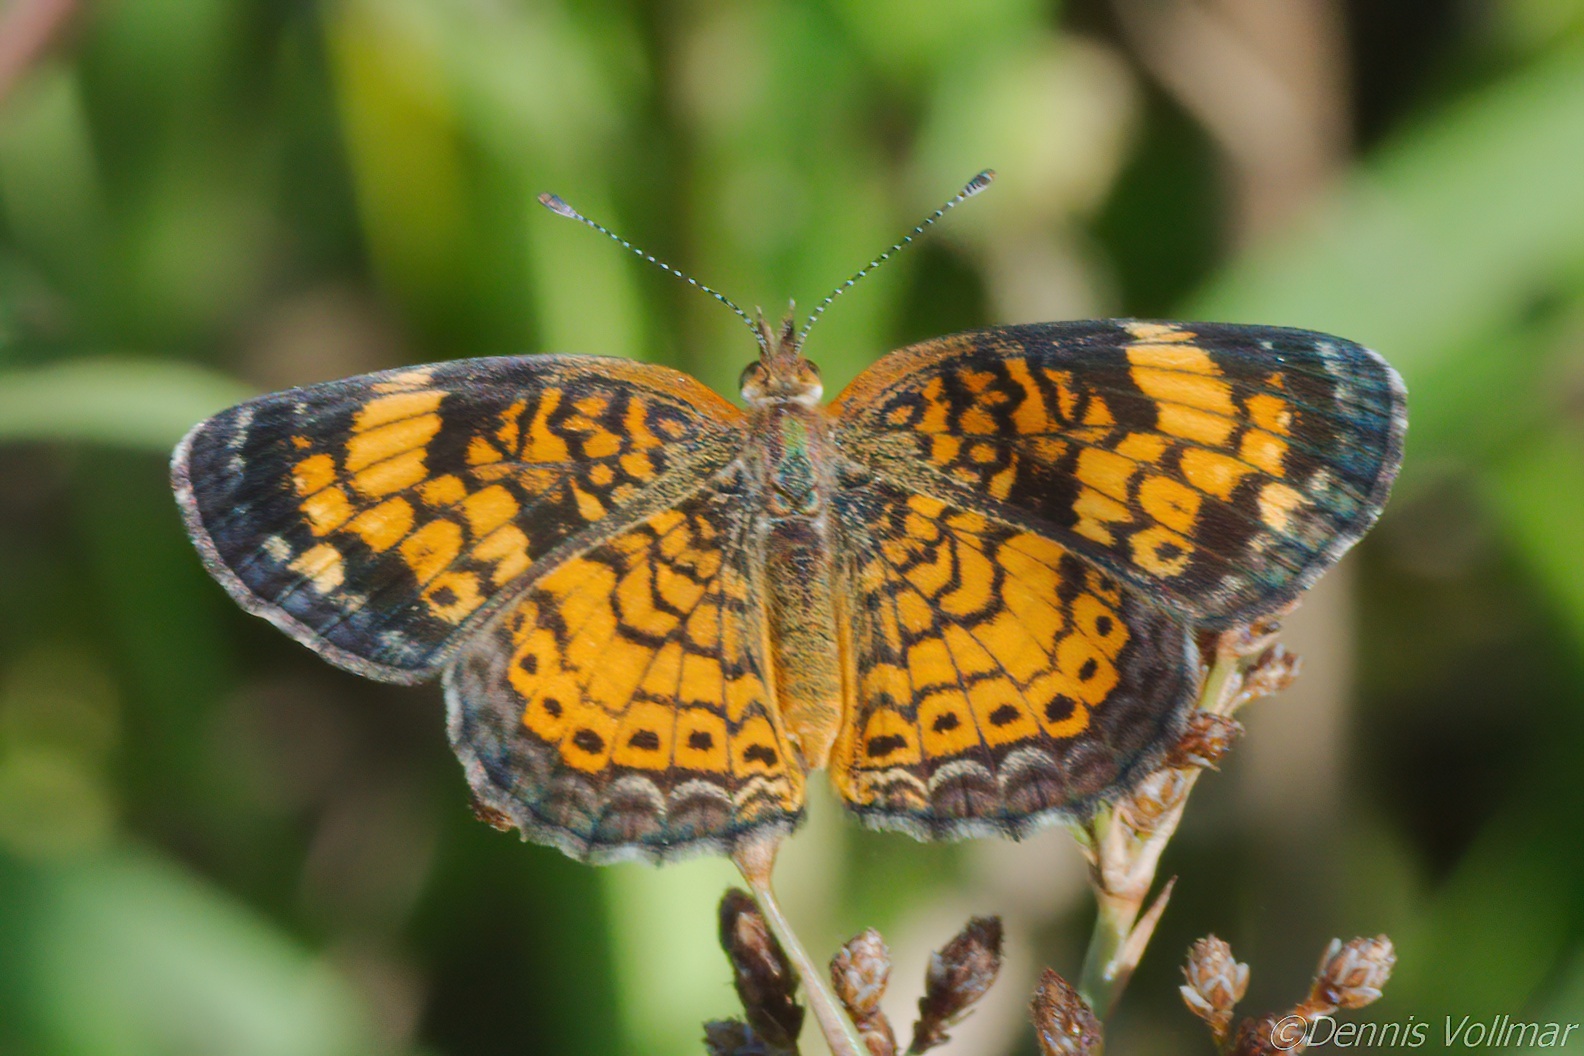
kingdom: Animalia
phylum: Arthropoda
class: Insecta
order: Lepidoptera
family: Nymphalidae
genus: Phyciodes
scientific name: Phyciodes tharos
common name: Pearl crescent
